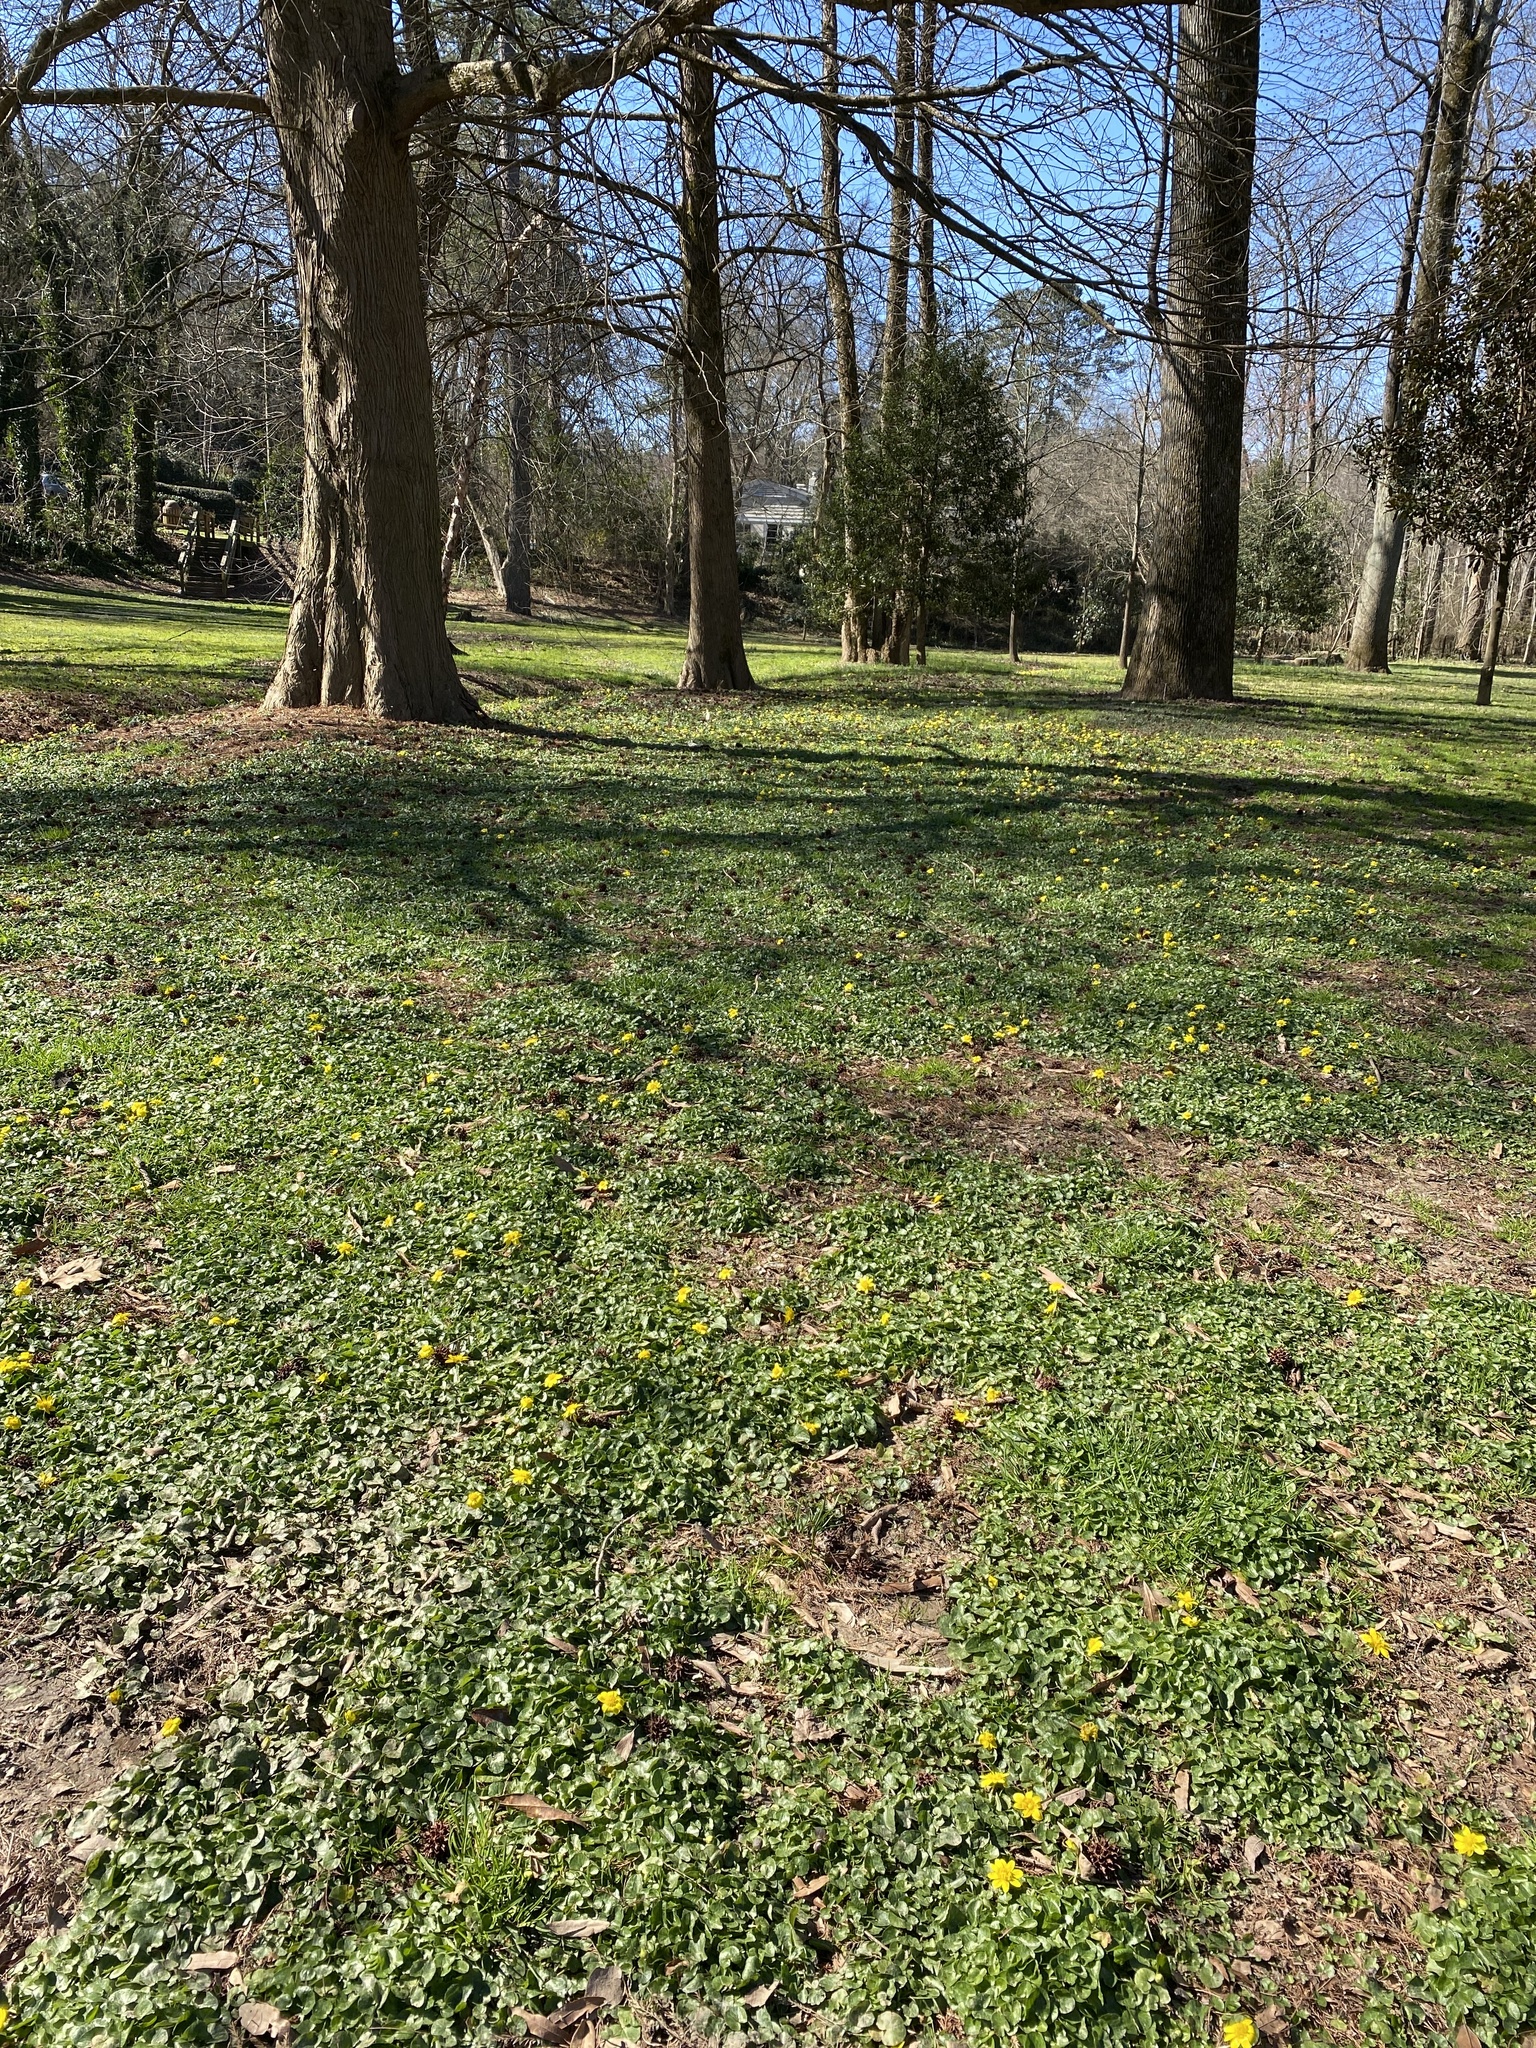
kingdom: Plantae
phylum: Tracheophyta
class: Magnoliopsida
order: Ranunculales
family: Ranunculaceae
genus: Ficaria
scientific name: Ficaria verna
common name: Lesser celandine
